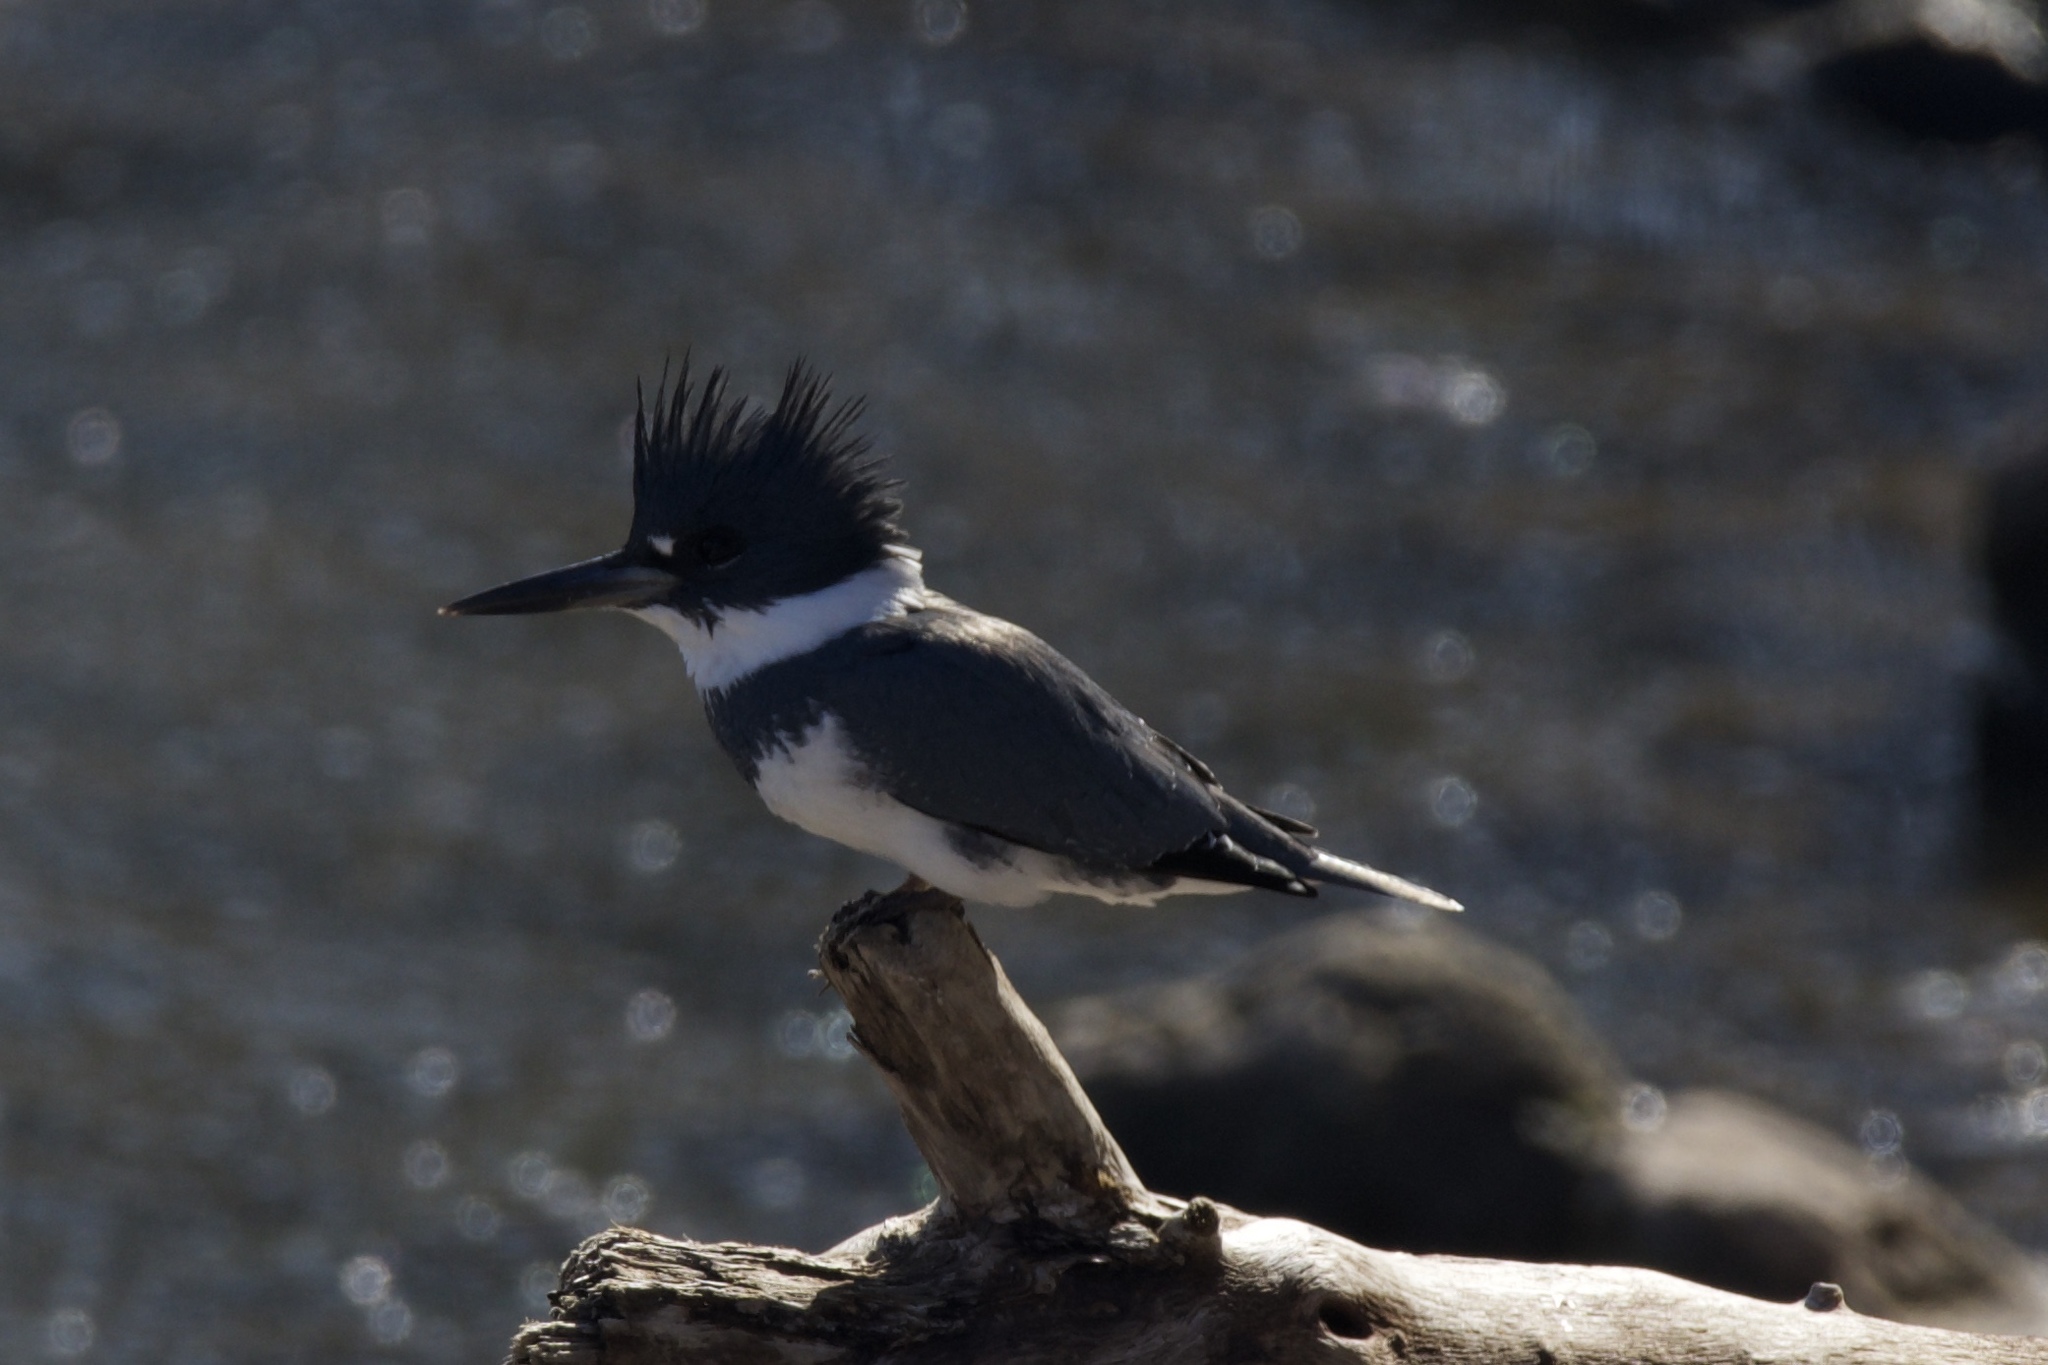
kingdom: Animalia
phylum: Chordata
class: Aves
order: Coraciiformes
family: Alcedinidae
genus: Megaceryle
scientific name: Megaceryle alcyon
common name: Belted kingfisher
